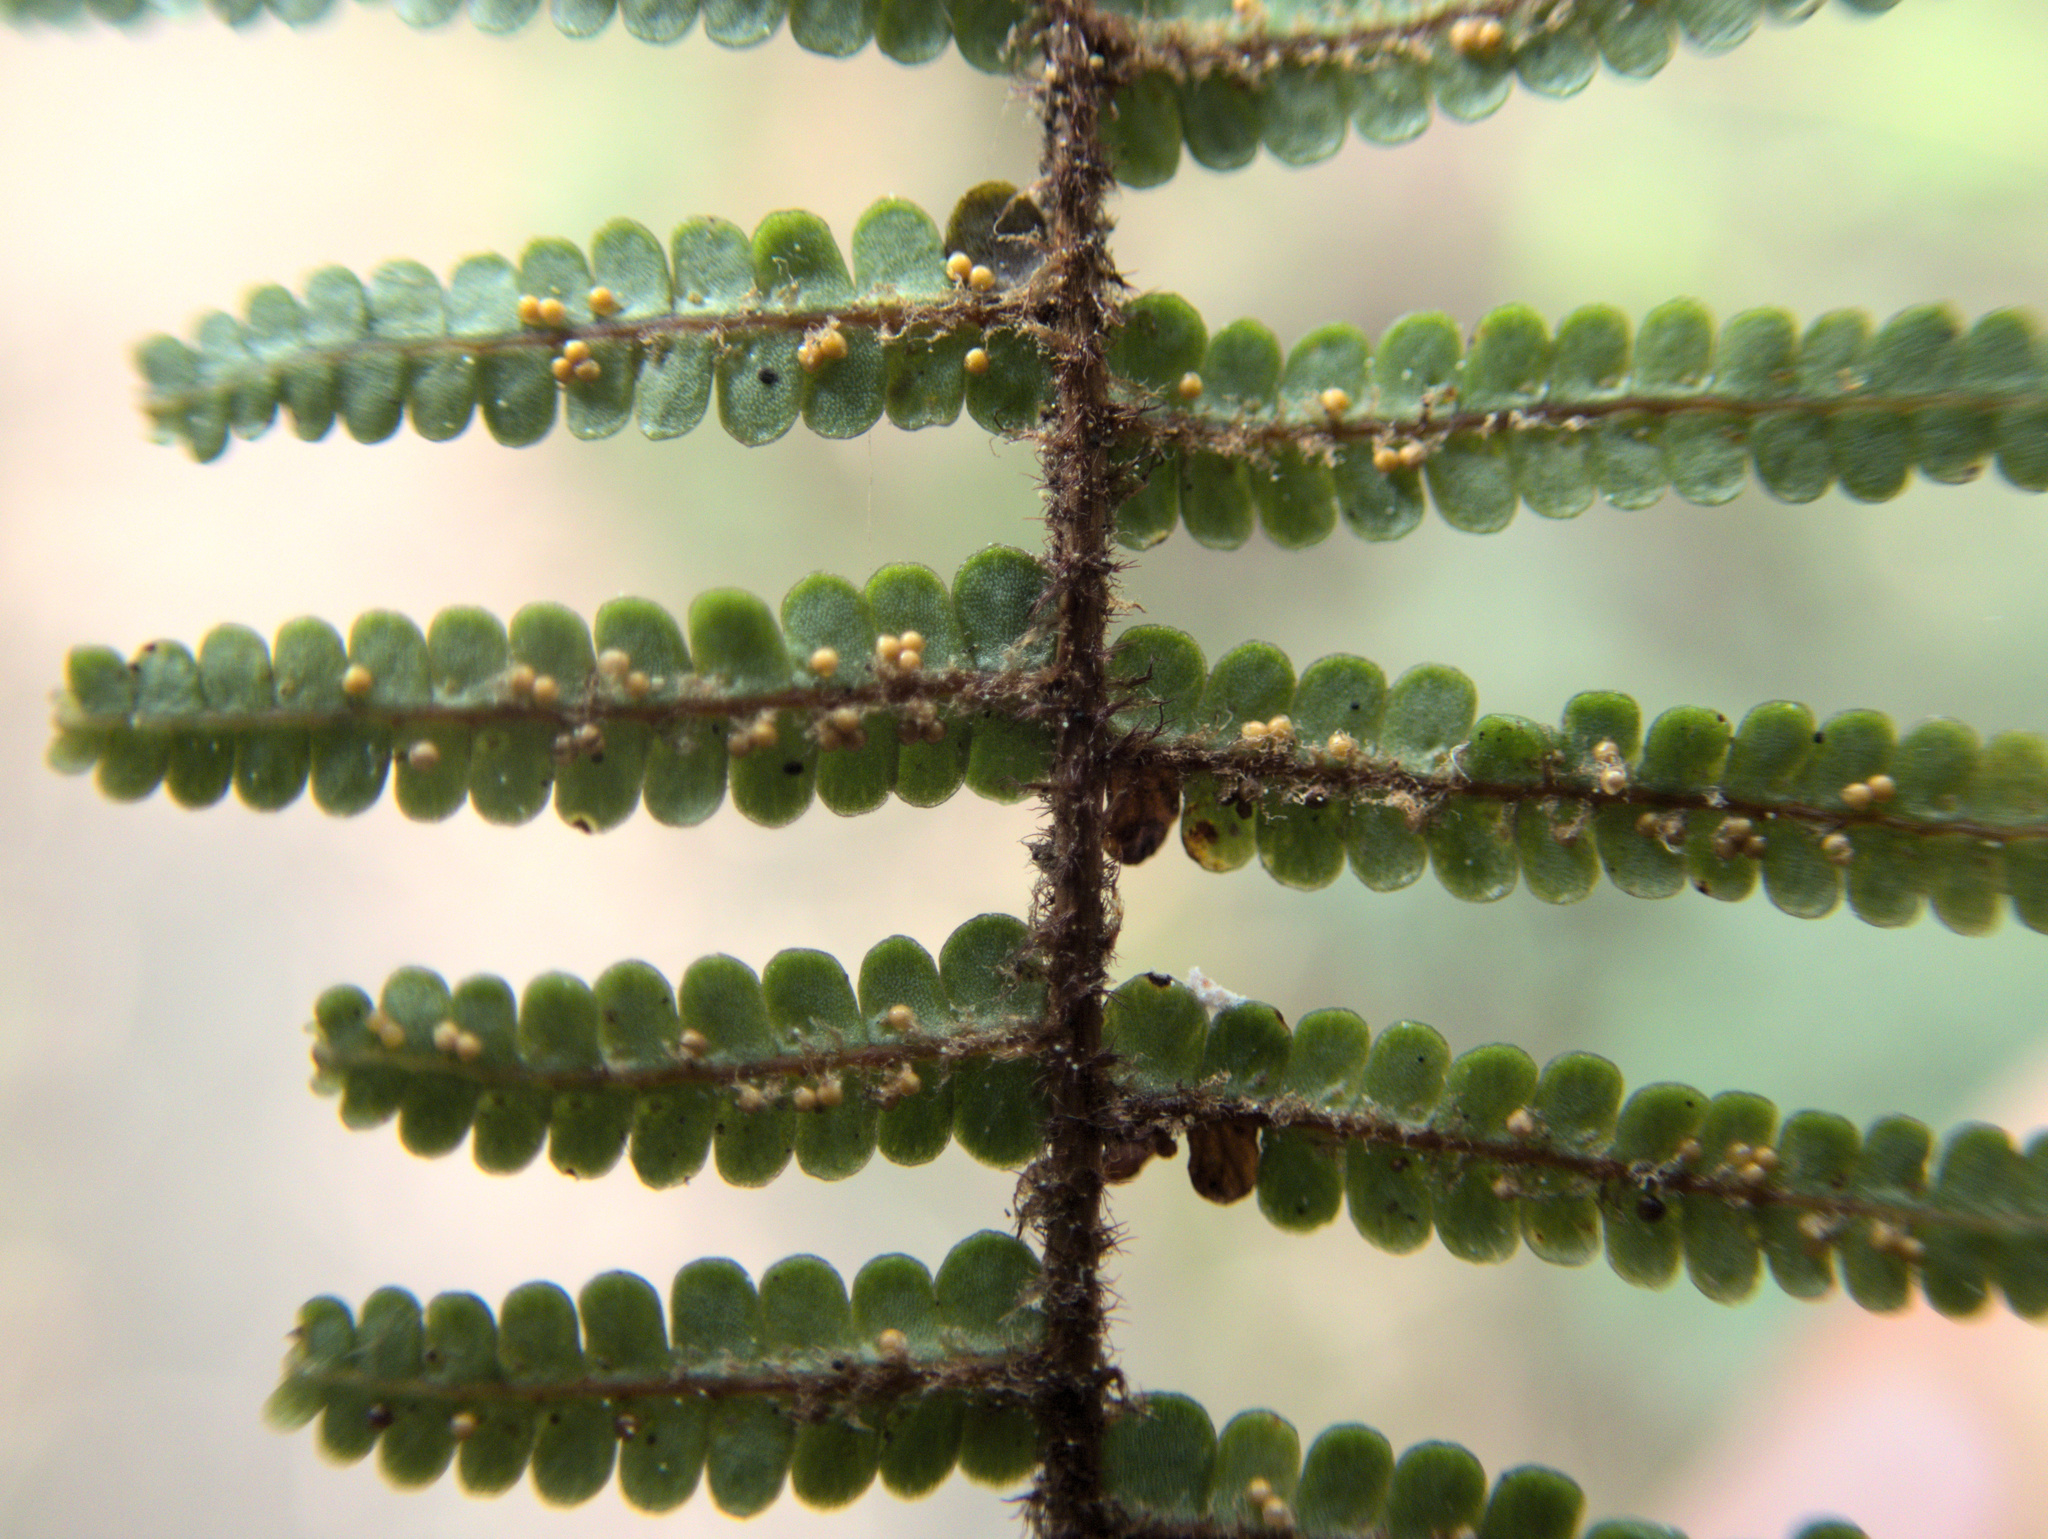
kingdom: Plantae
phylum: Tracheophyta
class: Polypodiopsida
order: Gleicheniales
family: Gleicheniaceae
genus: Gleichenia
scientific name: Gleichenia microphylla
